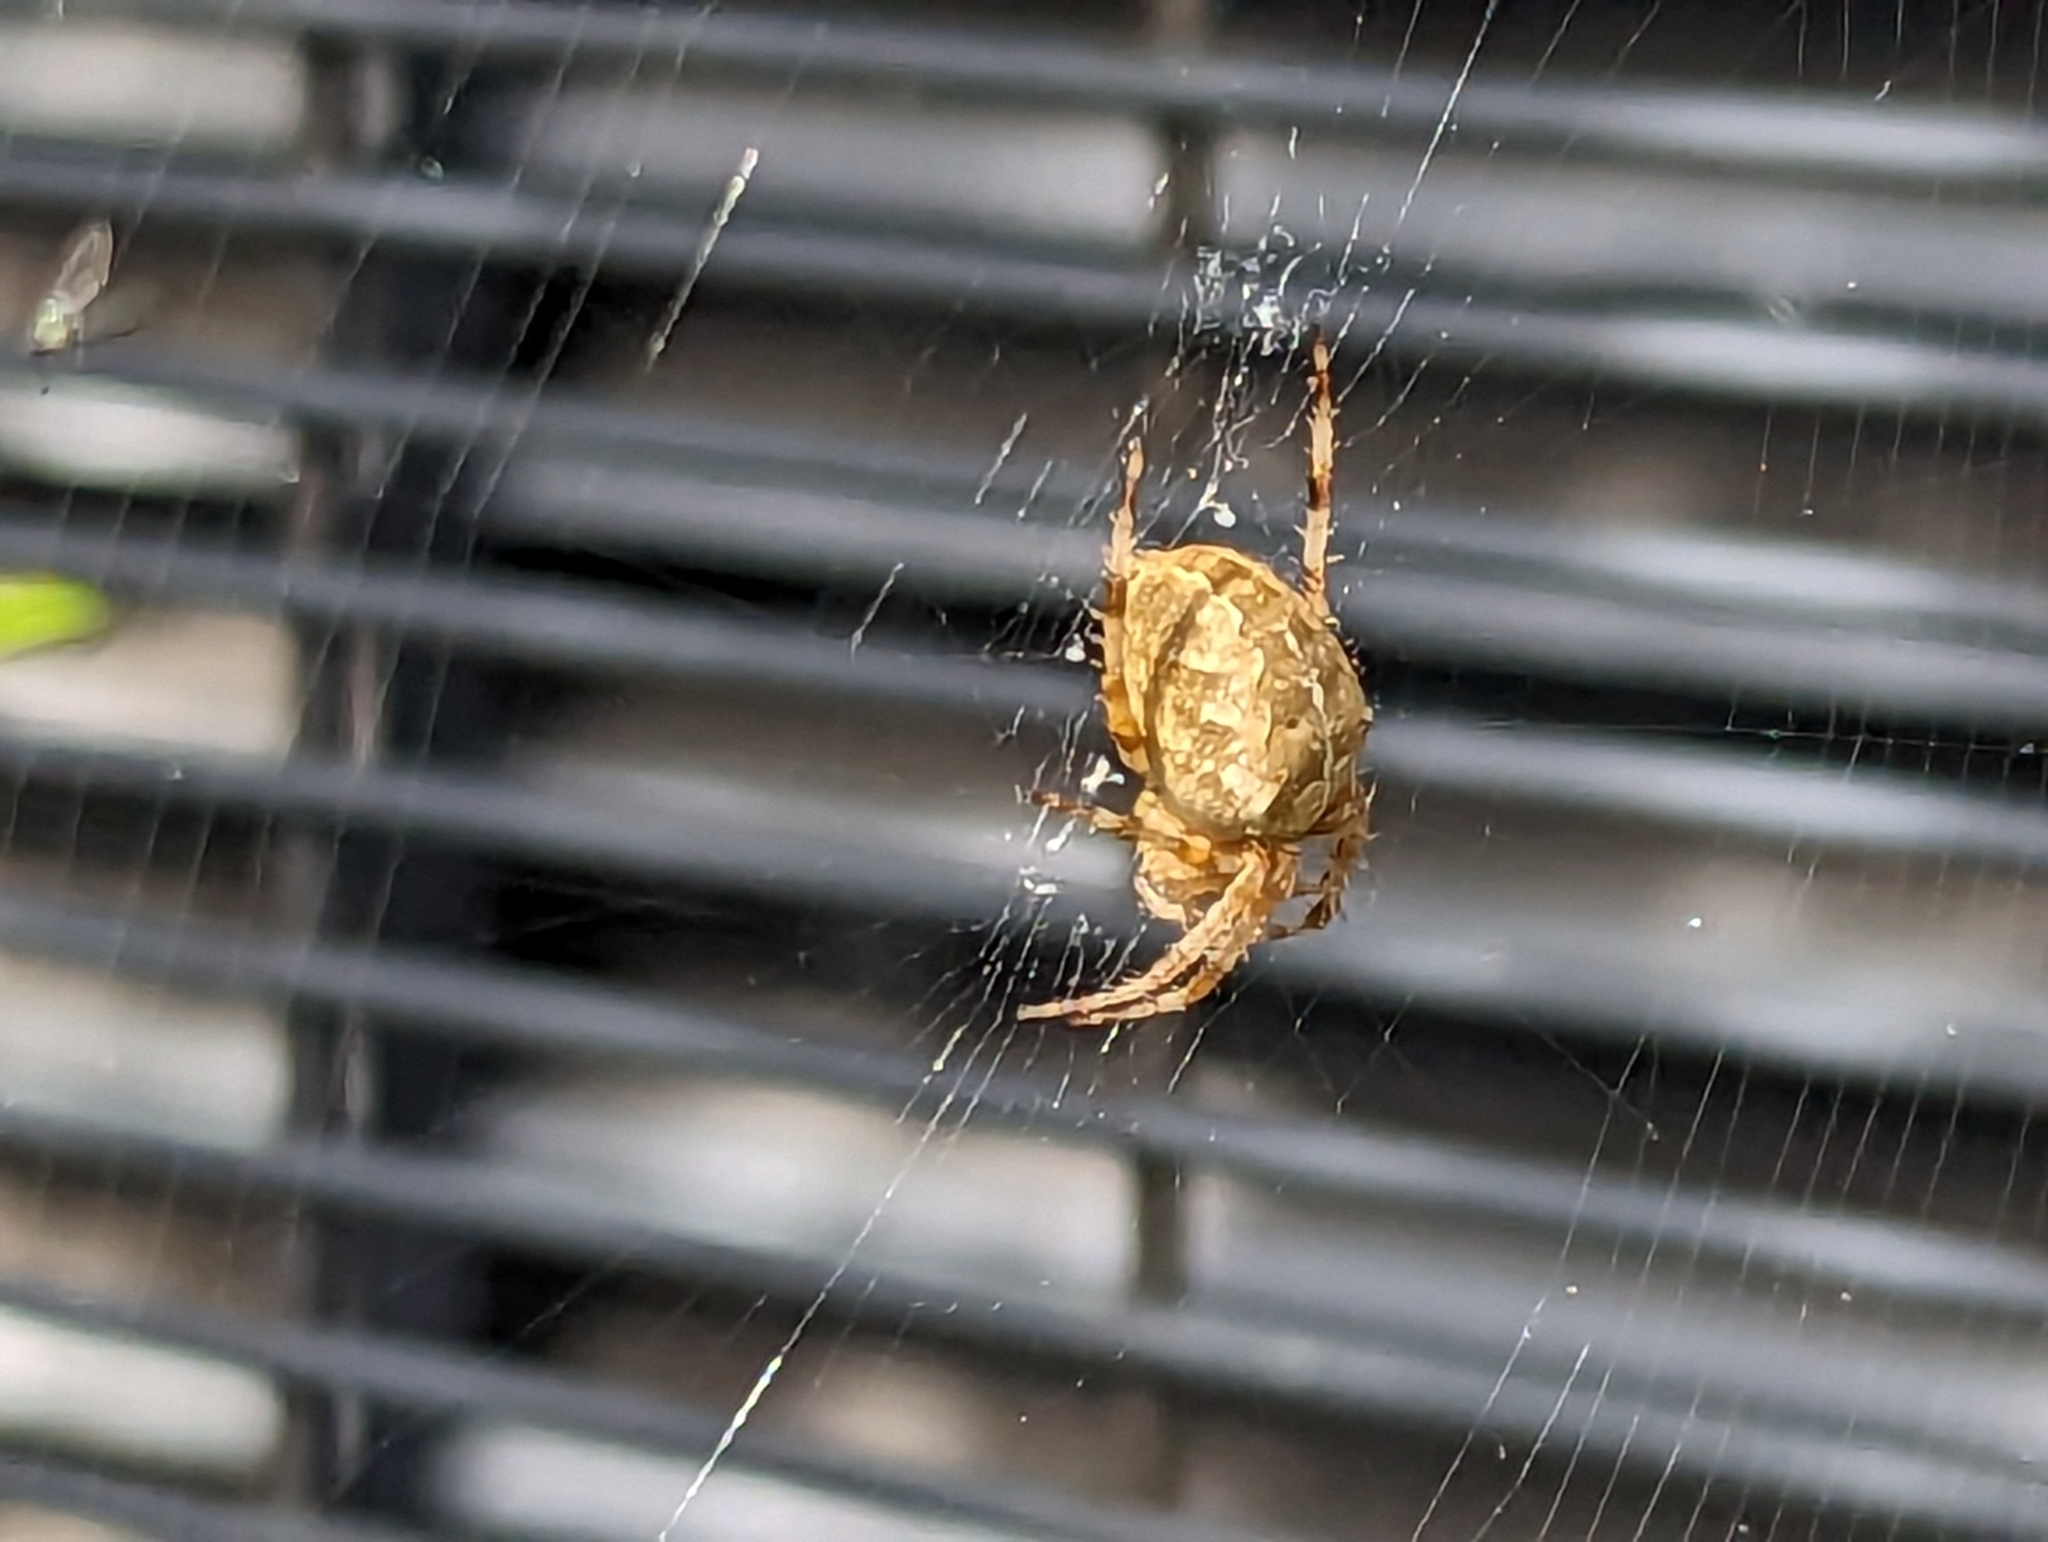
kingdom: Animalia
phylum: Arthropoda
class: Arachnida
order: Araneae
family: Araneidae
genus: Araneus
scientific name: Araneus diadematus
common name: Cross orbweaver
